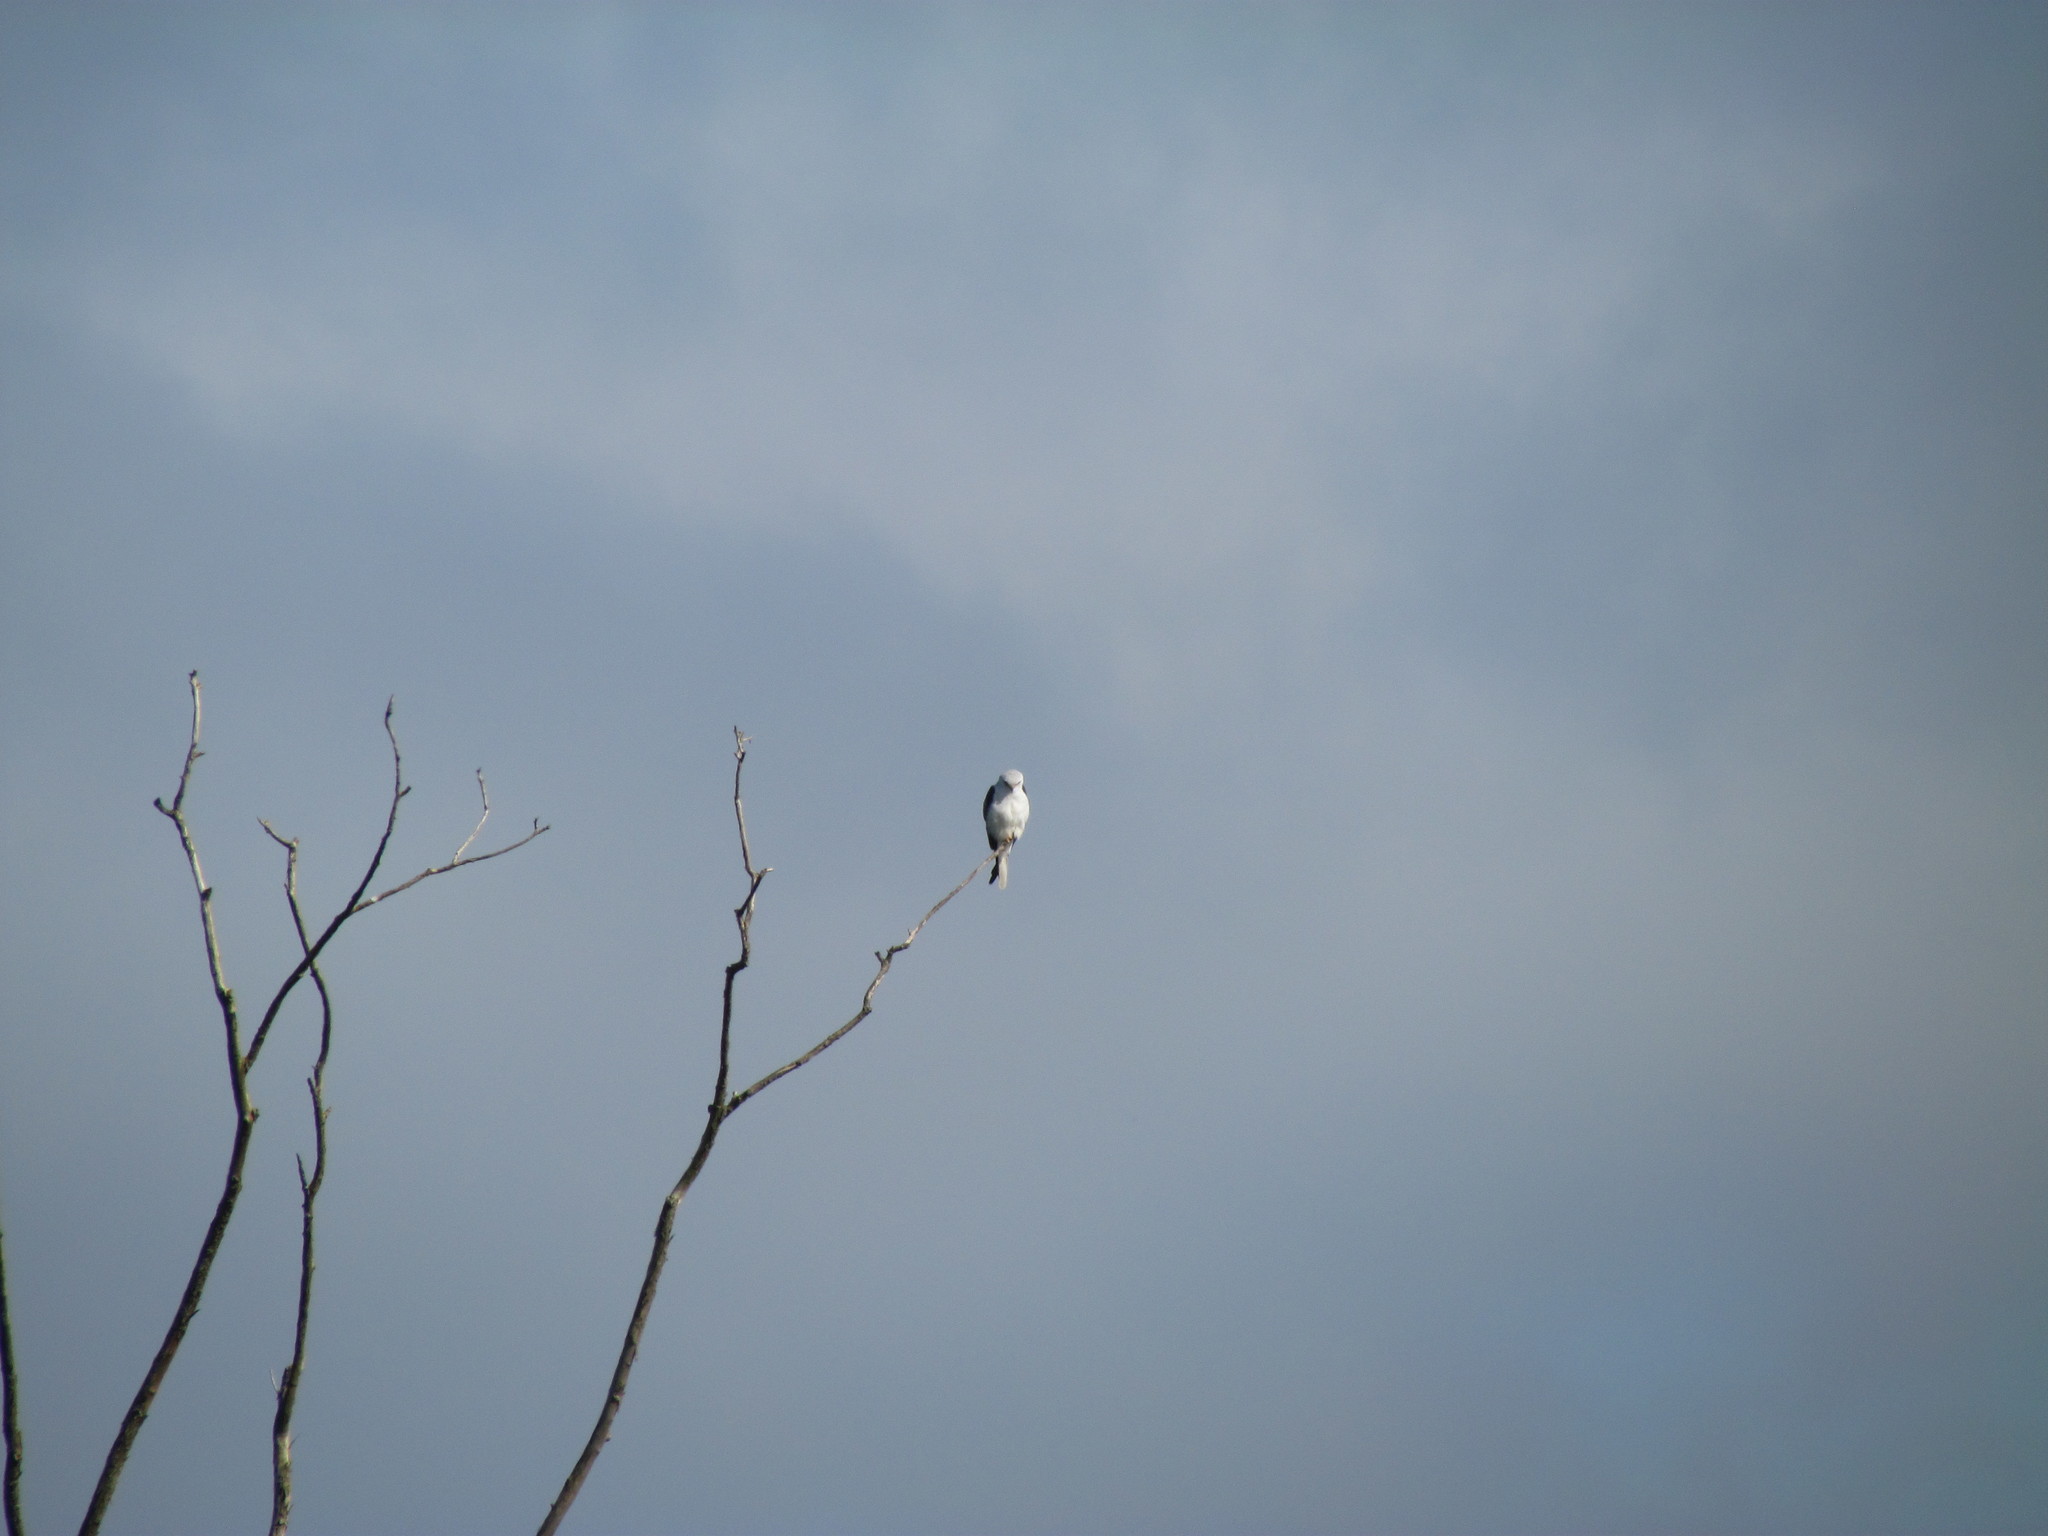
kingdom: Animalia
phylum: Chordata
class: Aves
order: Accipitriformes
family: Accipitridae
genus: Elanus
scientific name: Elanus leucurus
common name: White-tailed kite
